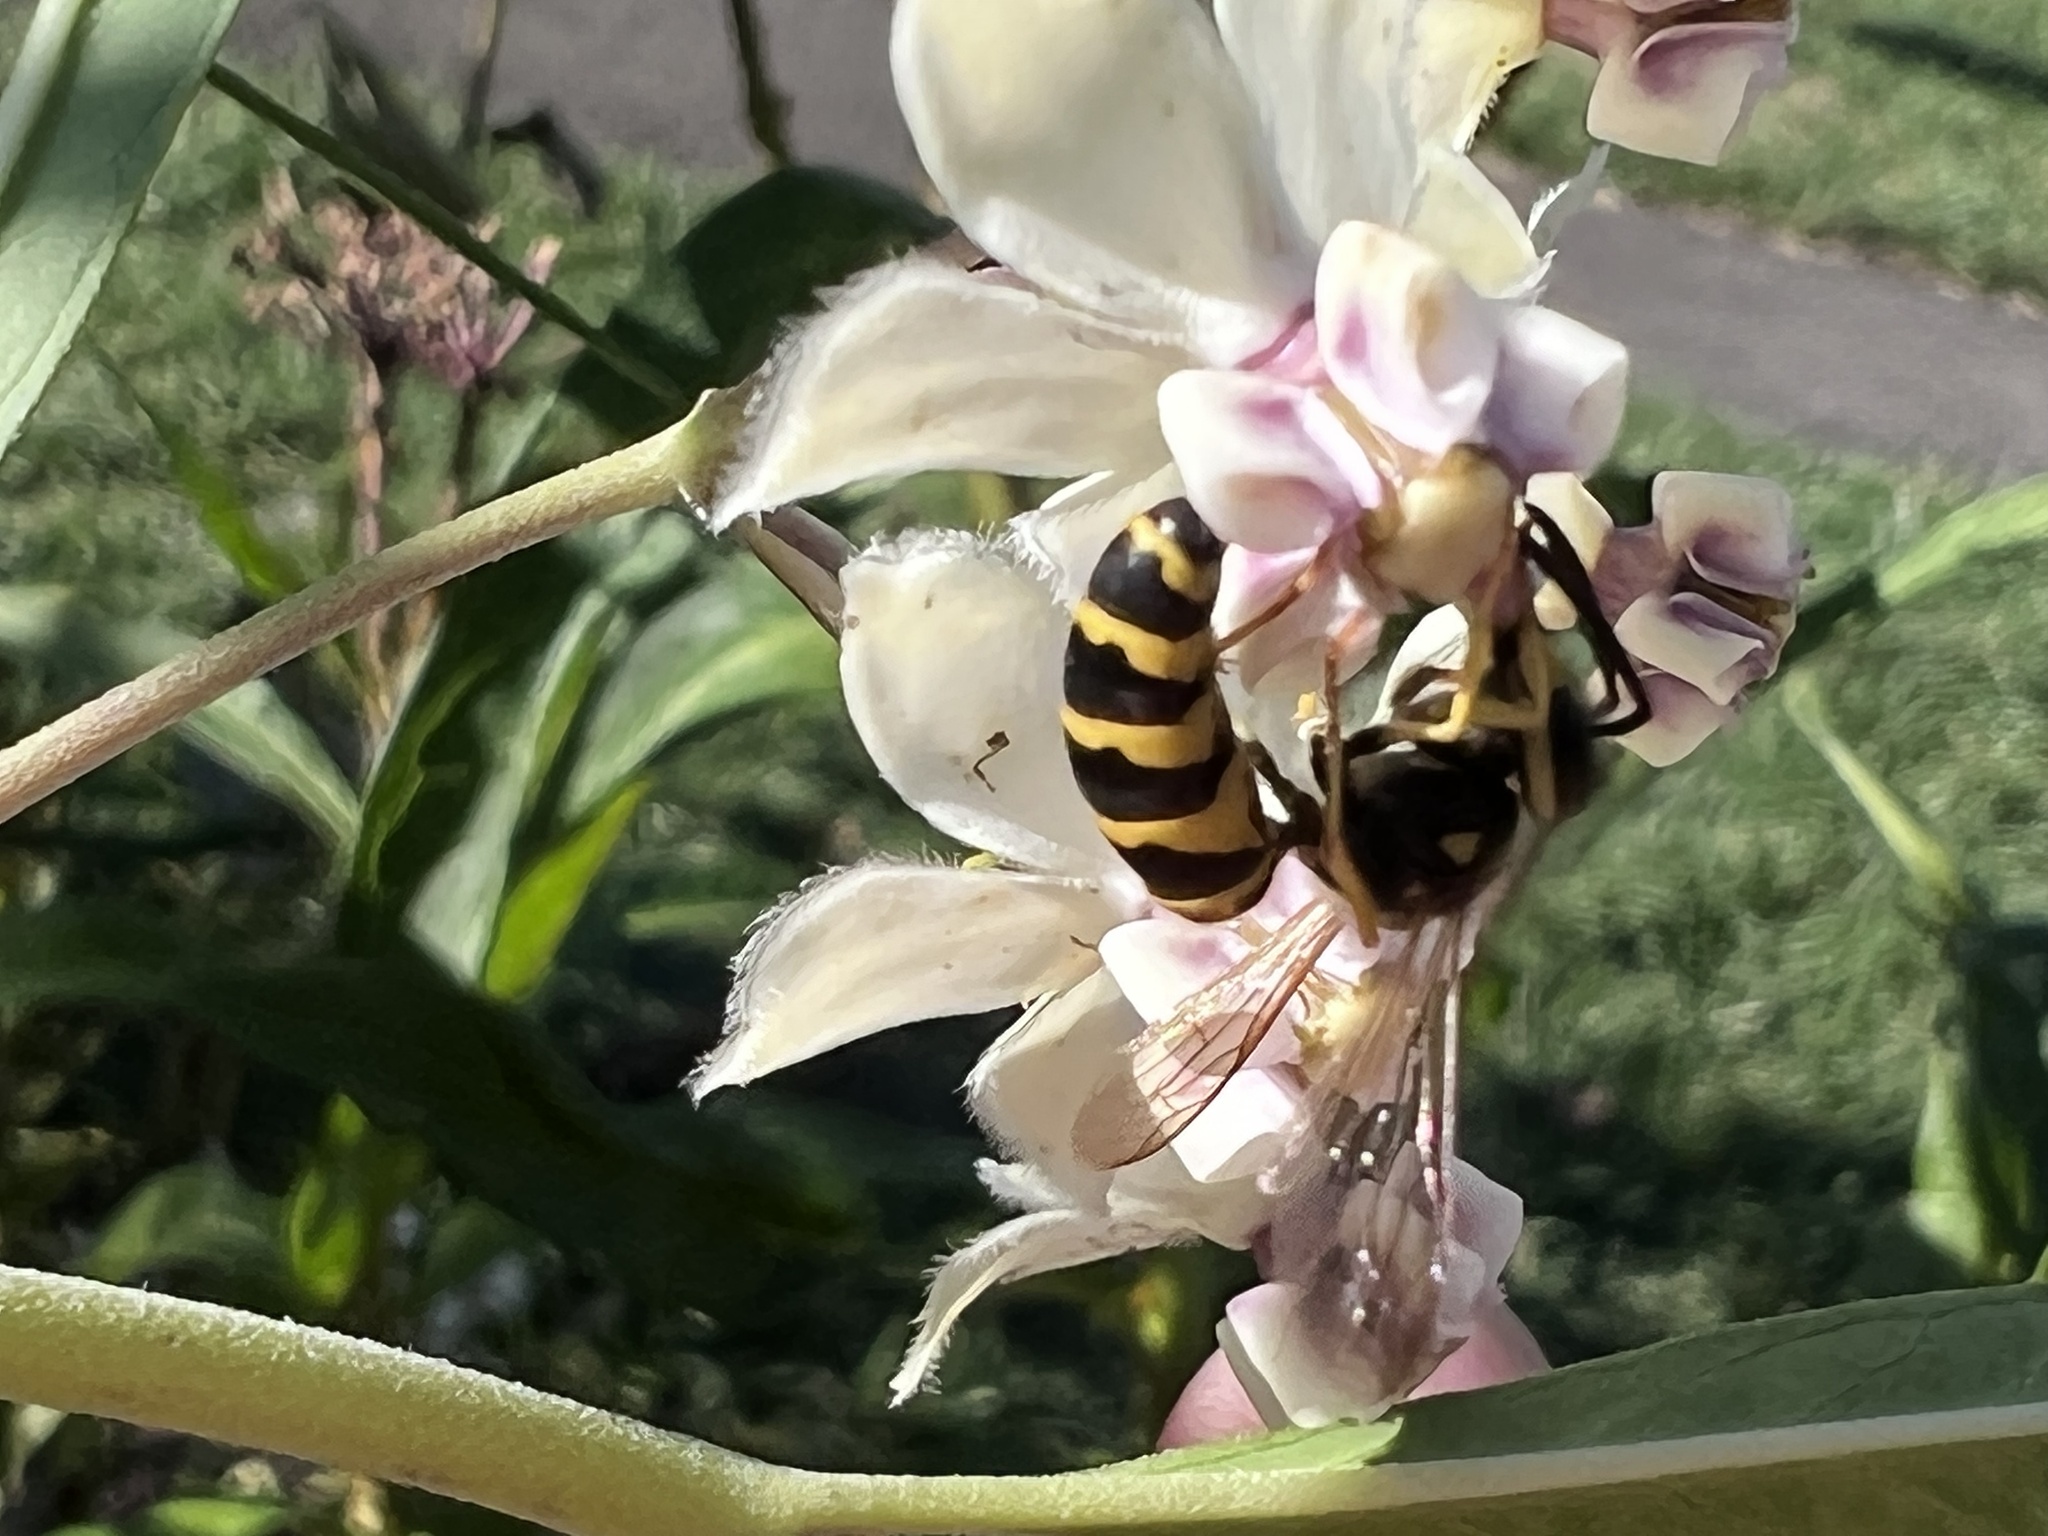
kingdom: Animalia
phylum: Arthropoda
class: Insecta
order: Hymenoptera
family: Vespidae
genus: Vespula
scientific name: Vespula maculifrons
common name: Eastern yellowjacket
